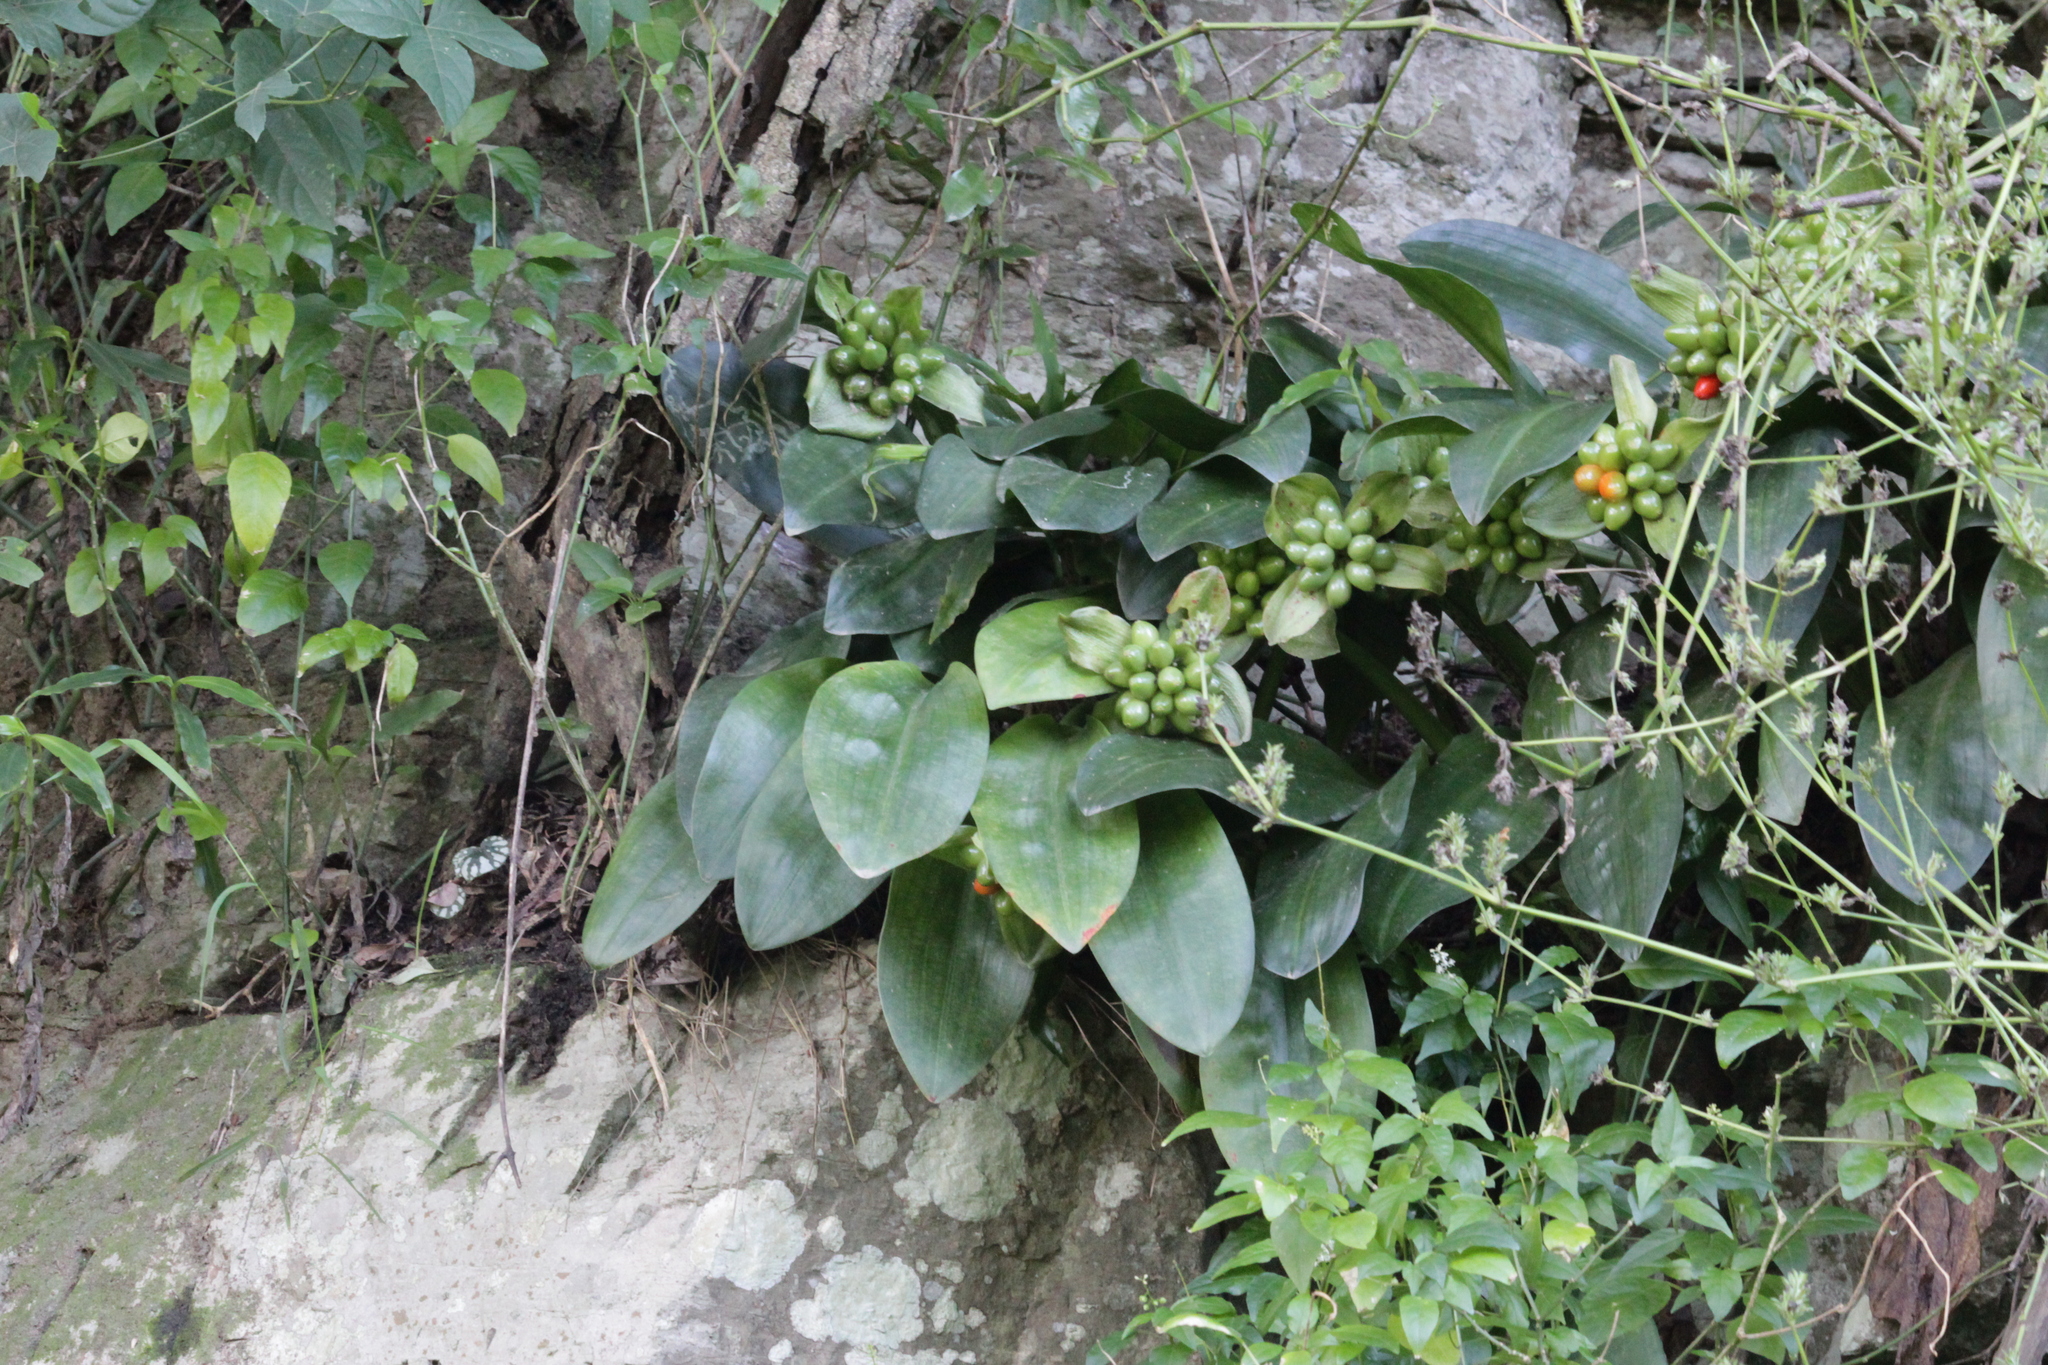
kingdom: Plantae
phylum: Tracheophyta
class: Liliopsida
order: Asparagales
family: Amaryllidaceae
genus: Scadoxus
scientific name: Scadoxus membranaceus
